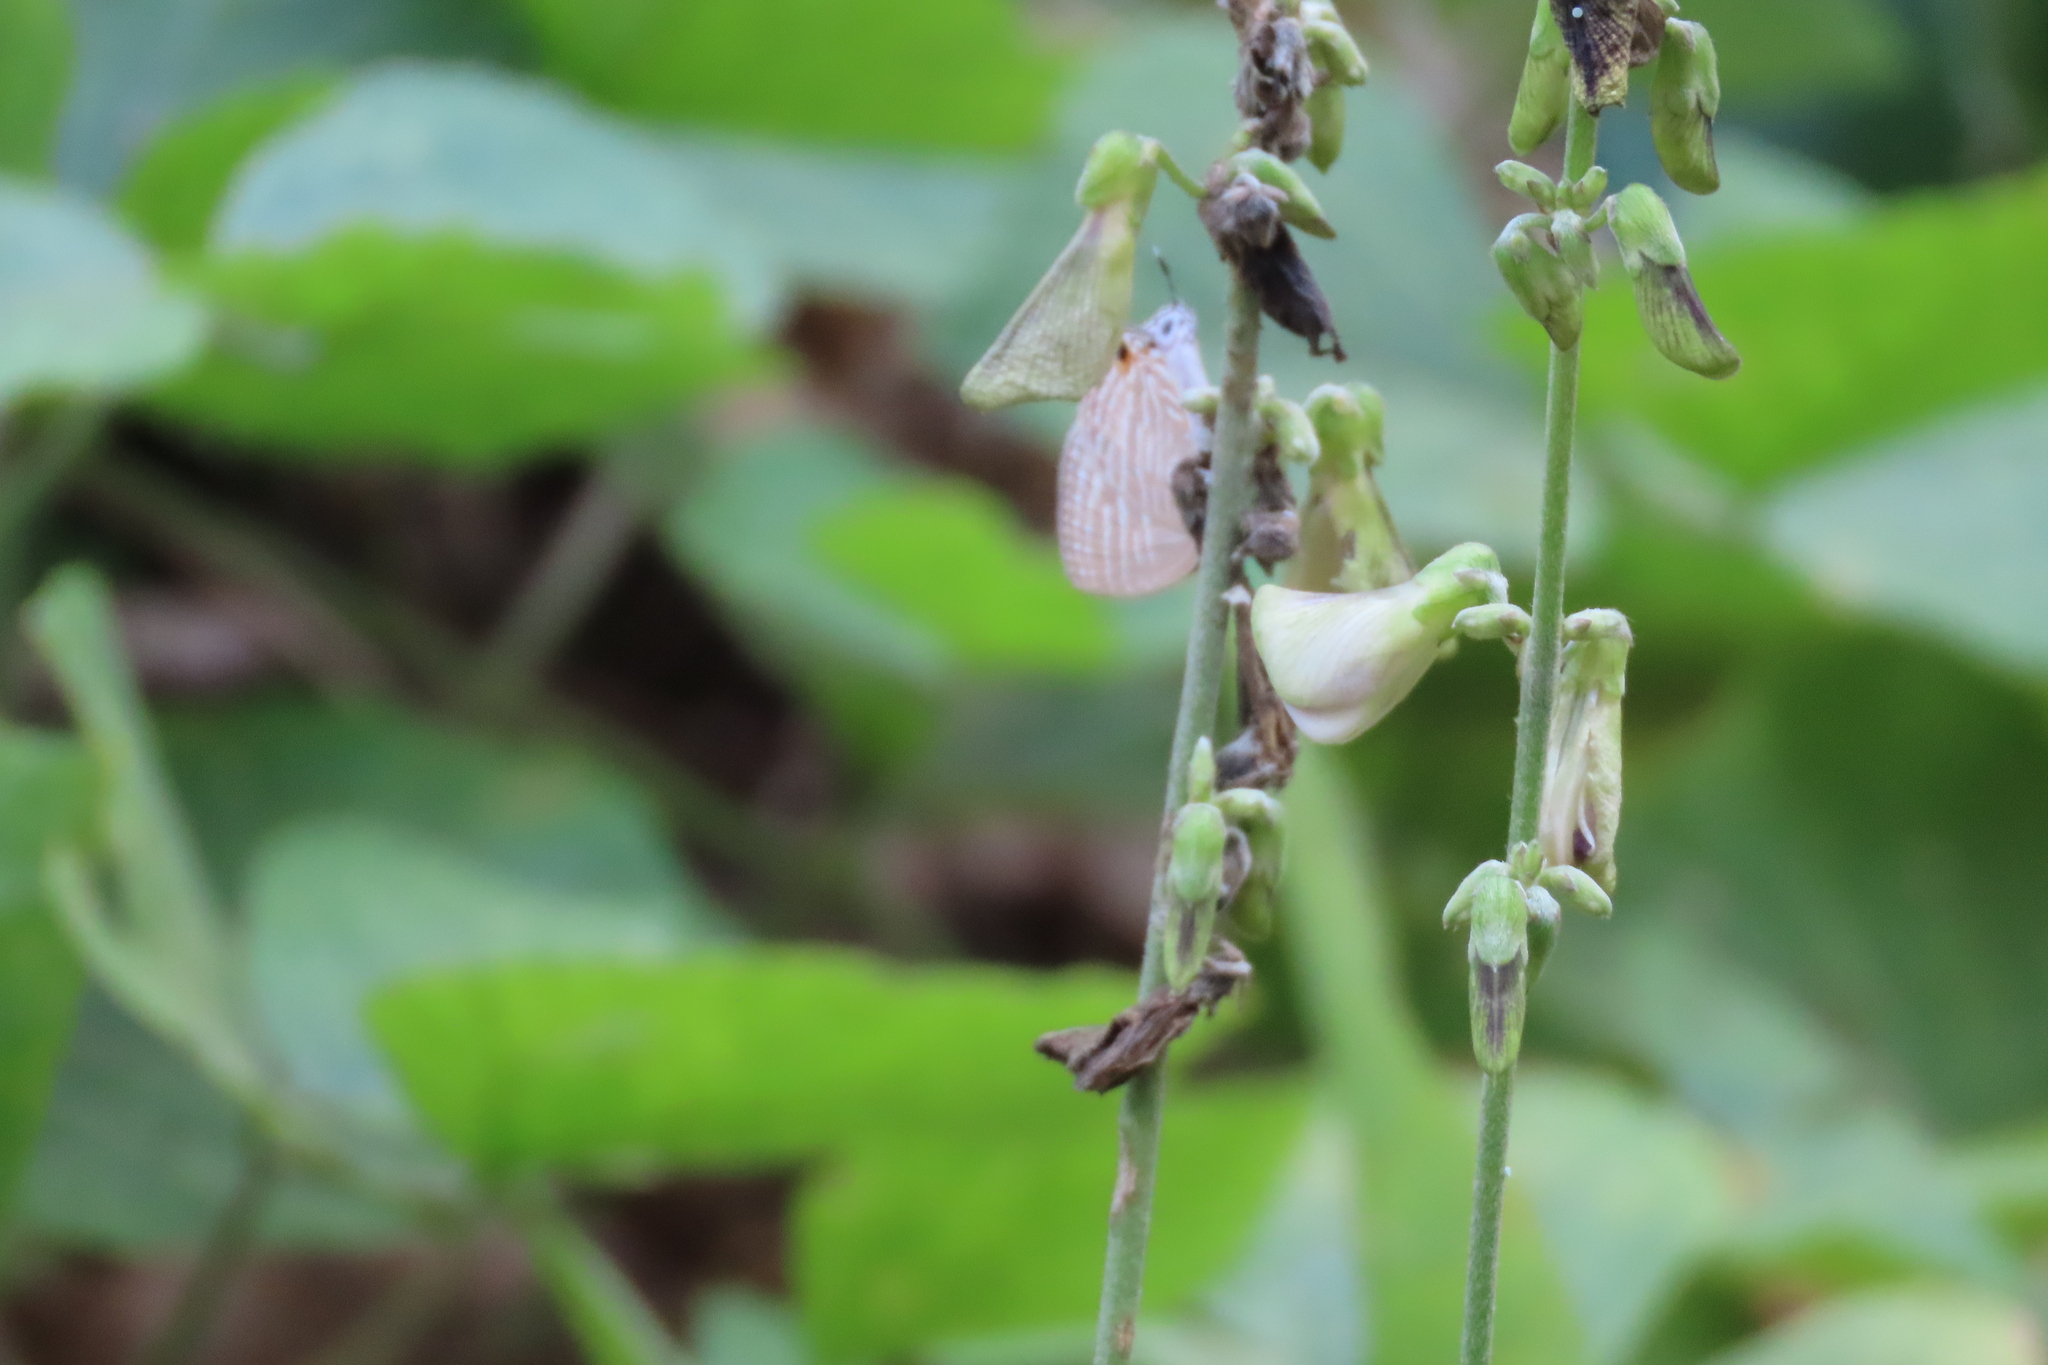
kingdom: Animalia
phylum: Arthropoda
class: Insecta
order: Lepidoptera
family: Lycaenidae
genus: Jamides
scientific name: Jamides celeno
